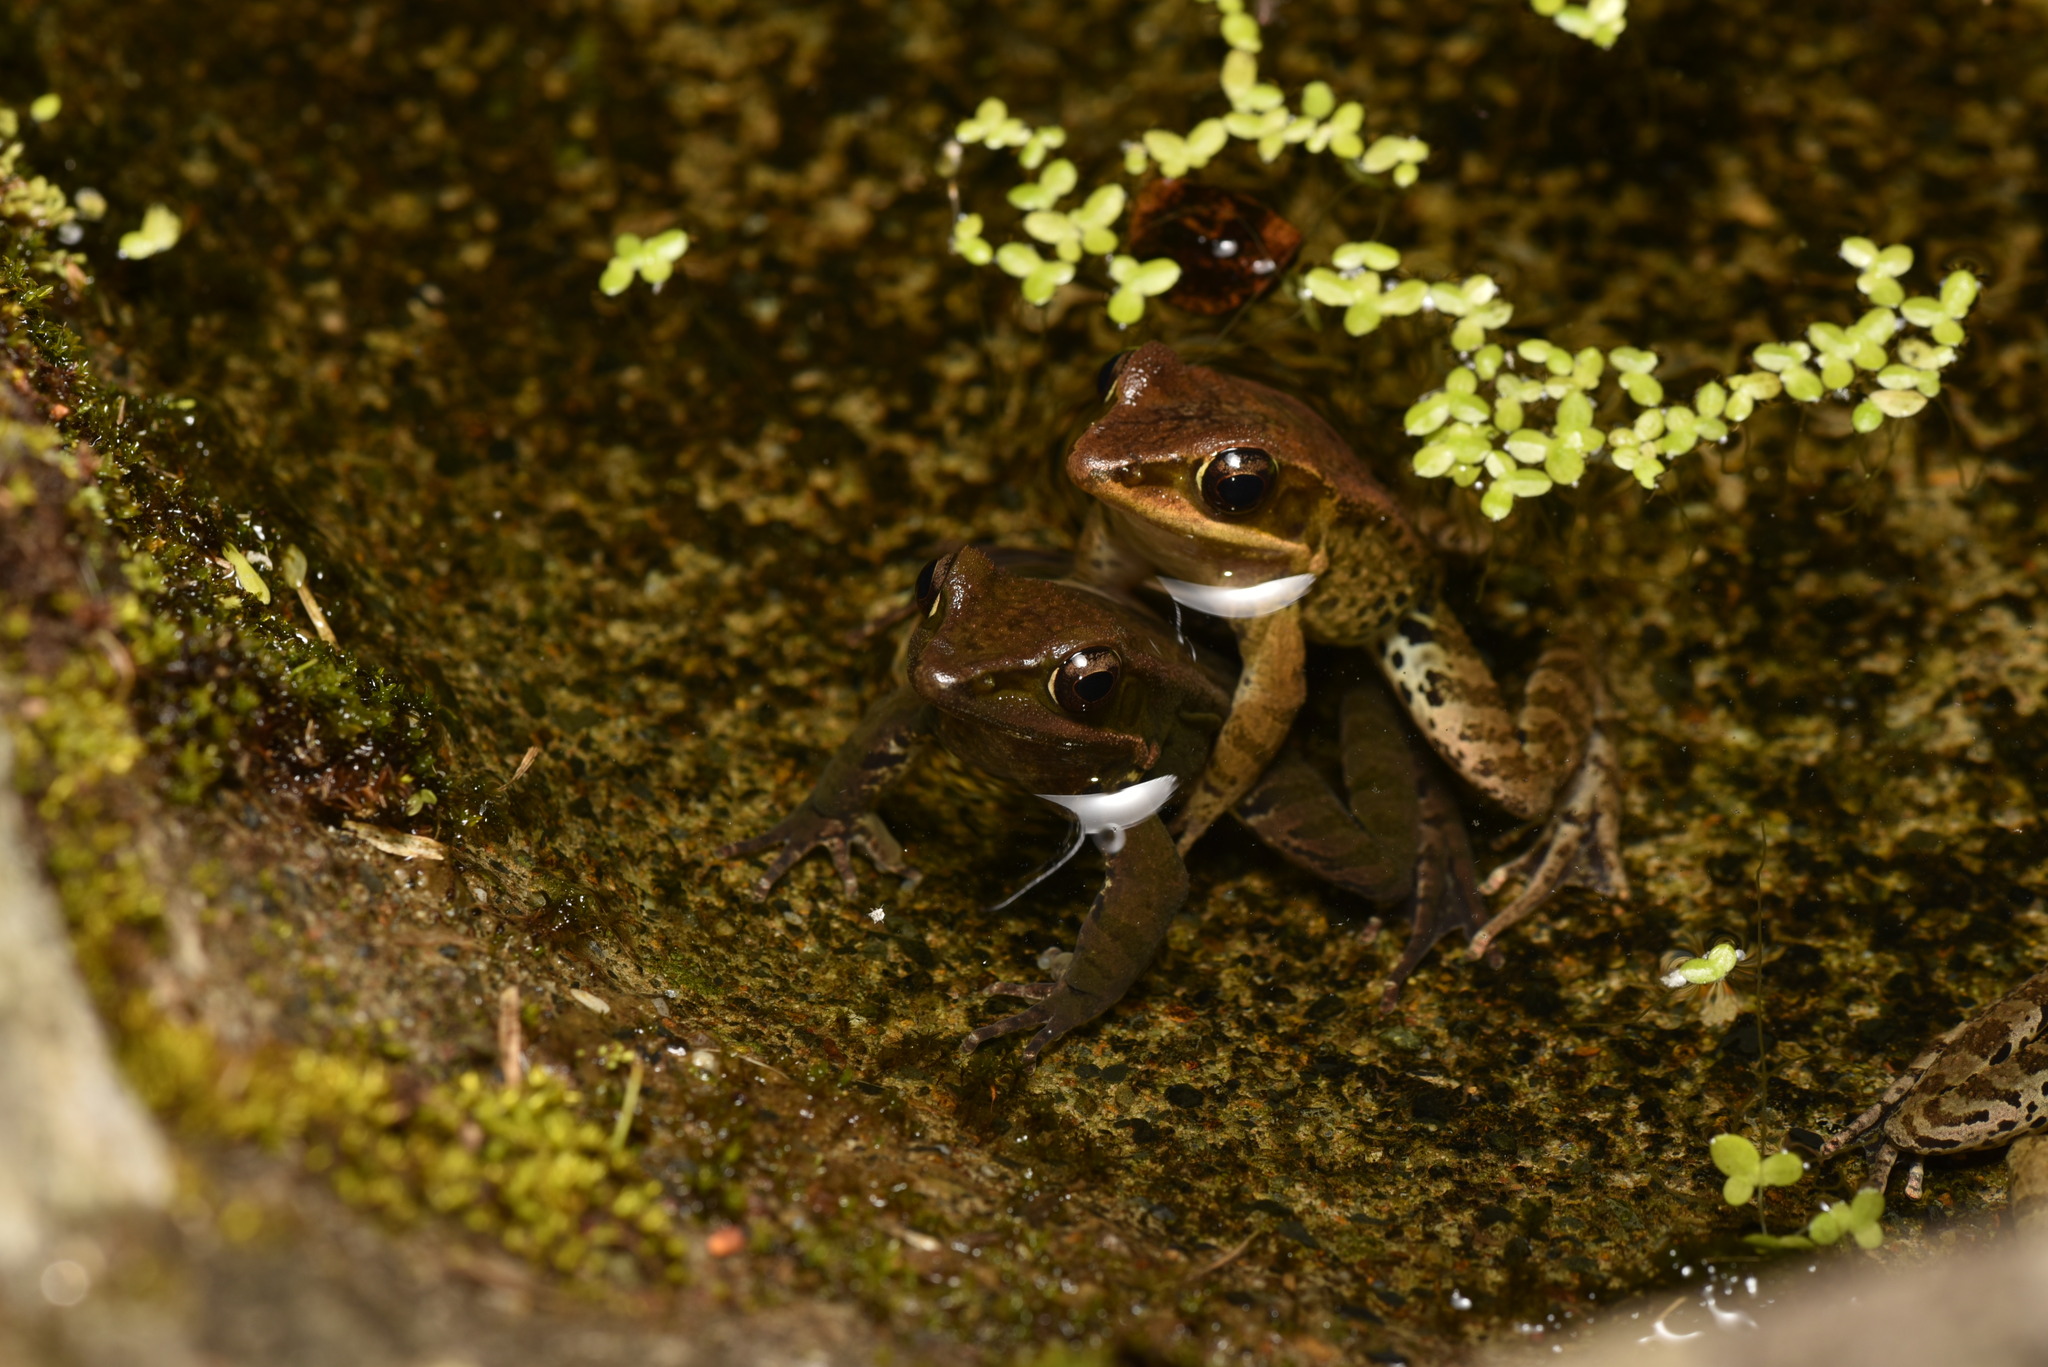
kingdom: Animalia
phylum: Chordata
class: Amphibia
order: Anura
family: Ranidae
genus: Hylarana
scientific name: Hylarana latouchii
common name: Broad-folded frog
